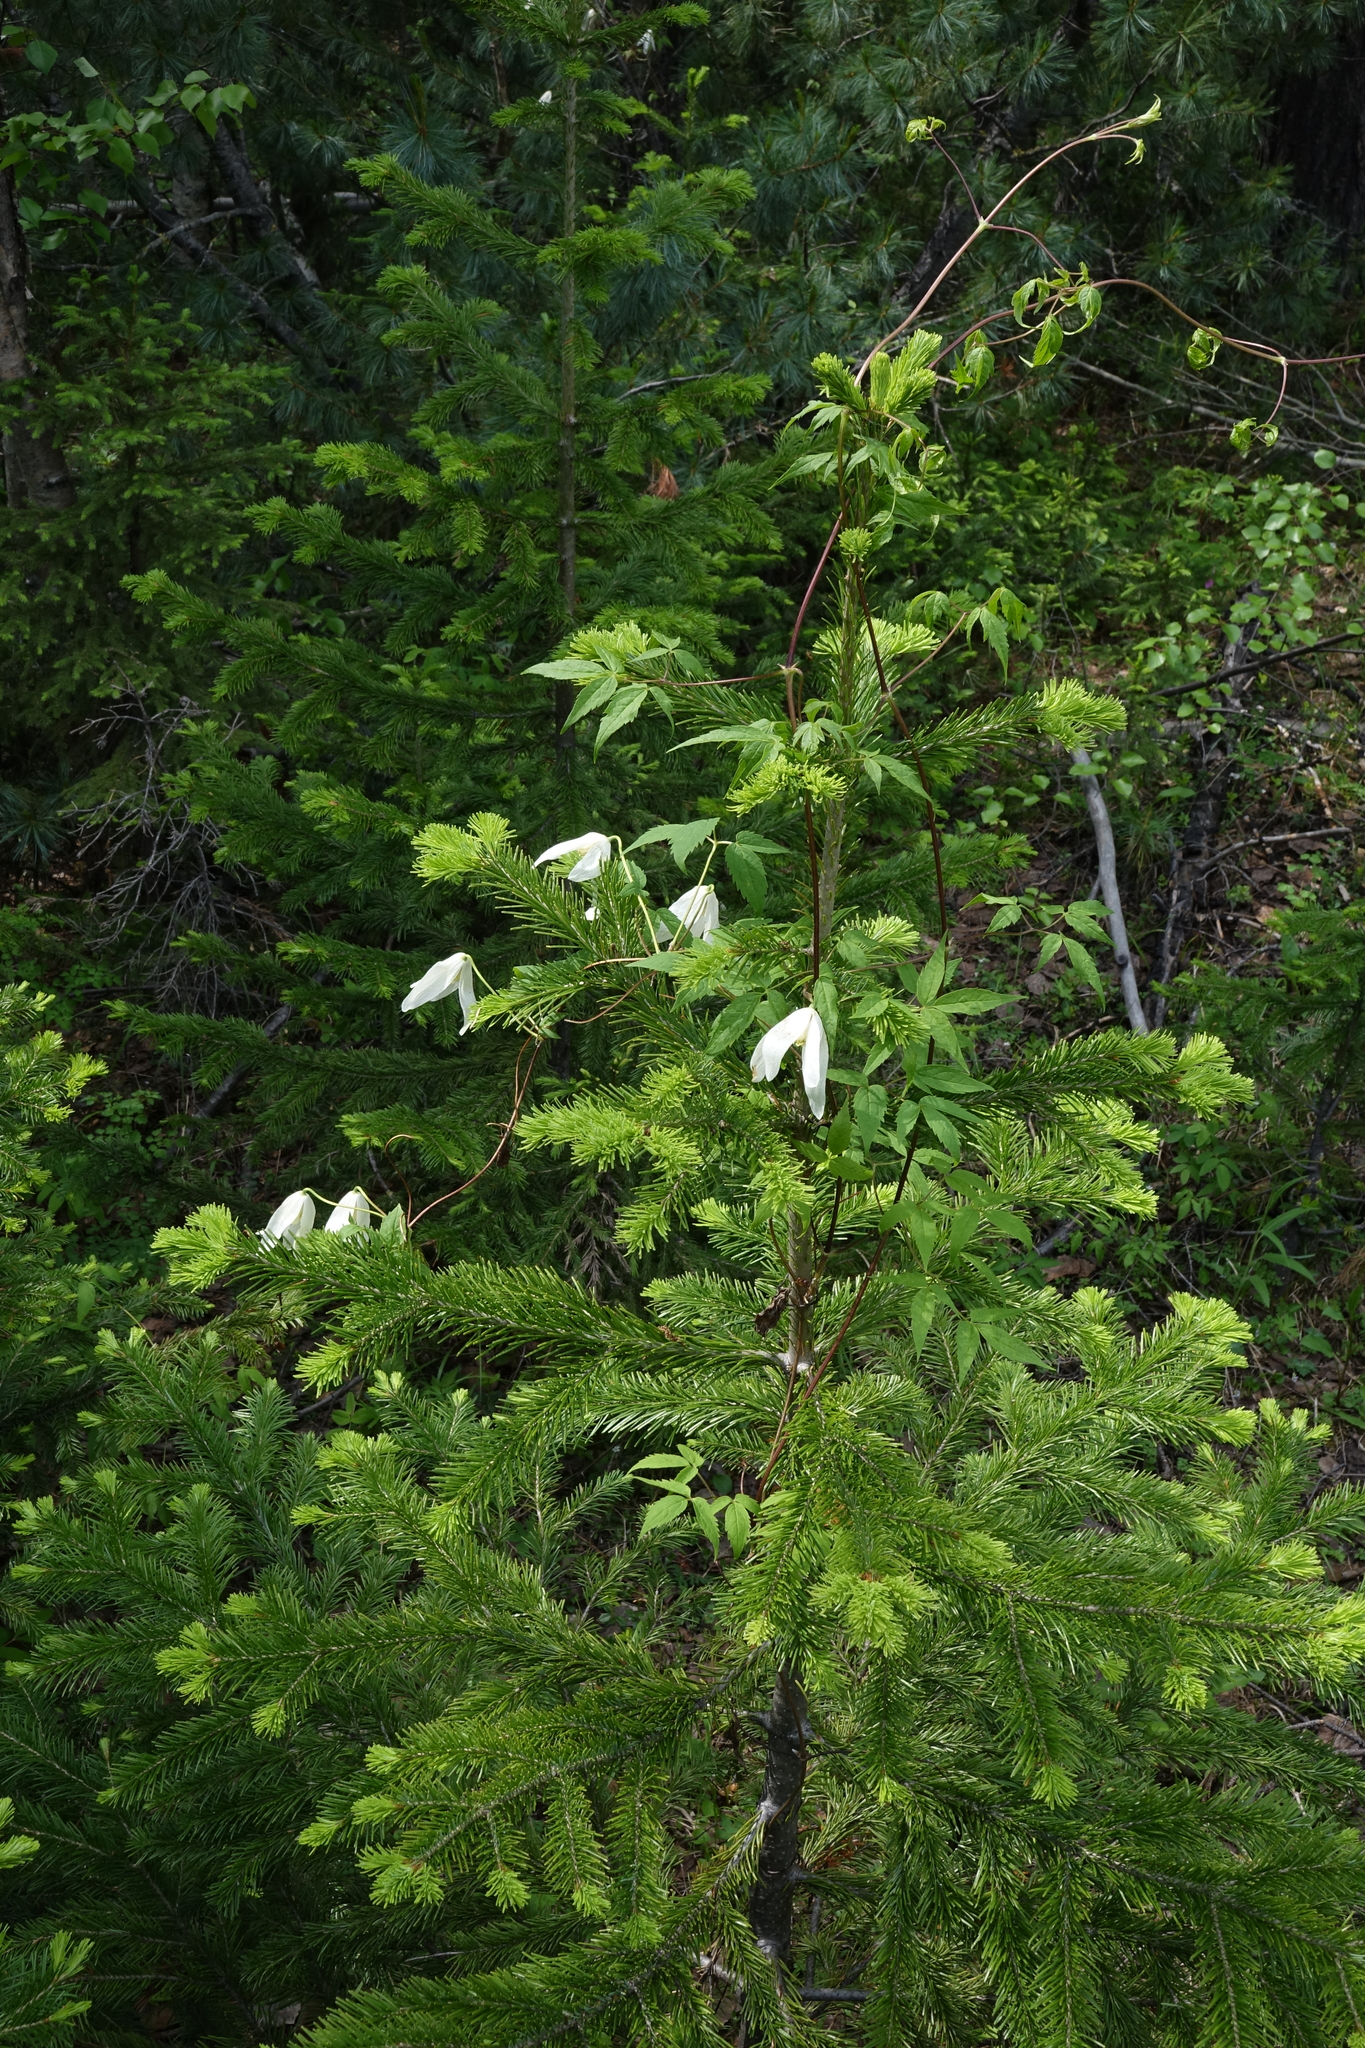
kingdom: Plantae
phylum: Tracheophyta
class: Magnoliopsida
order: Ranunculales
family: Ranunculaceae
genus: Clematis
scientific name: Clematis sibirica
